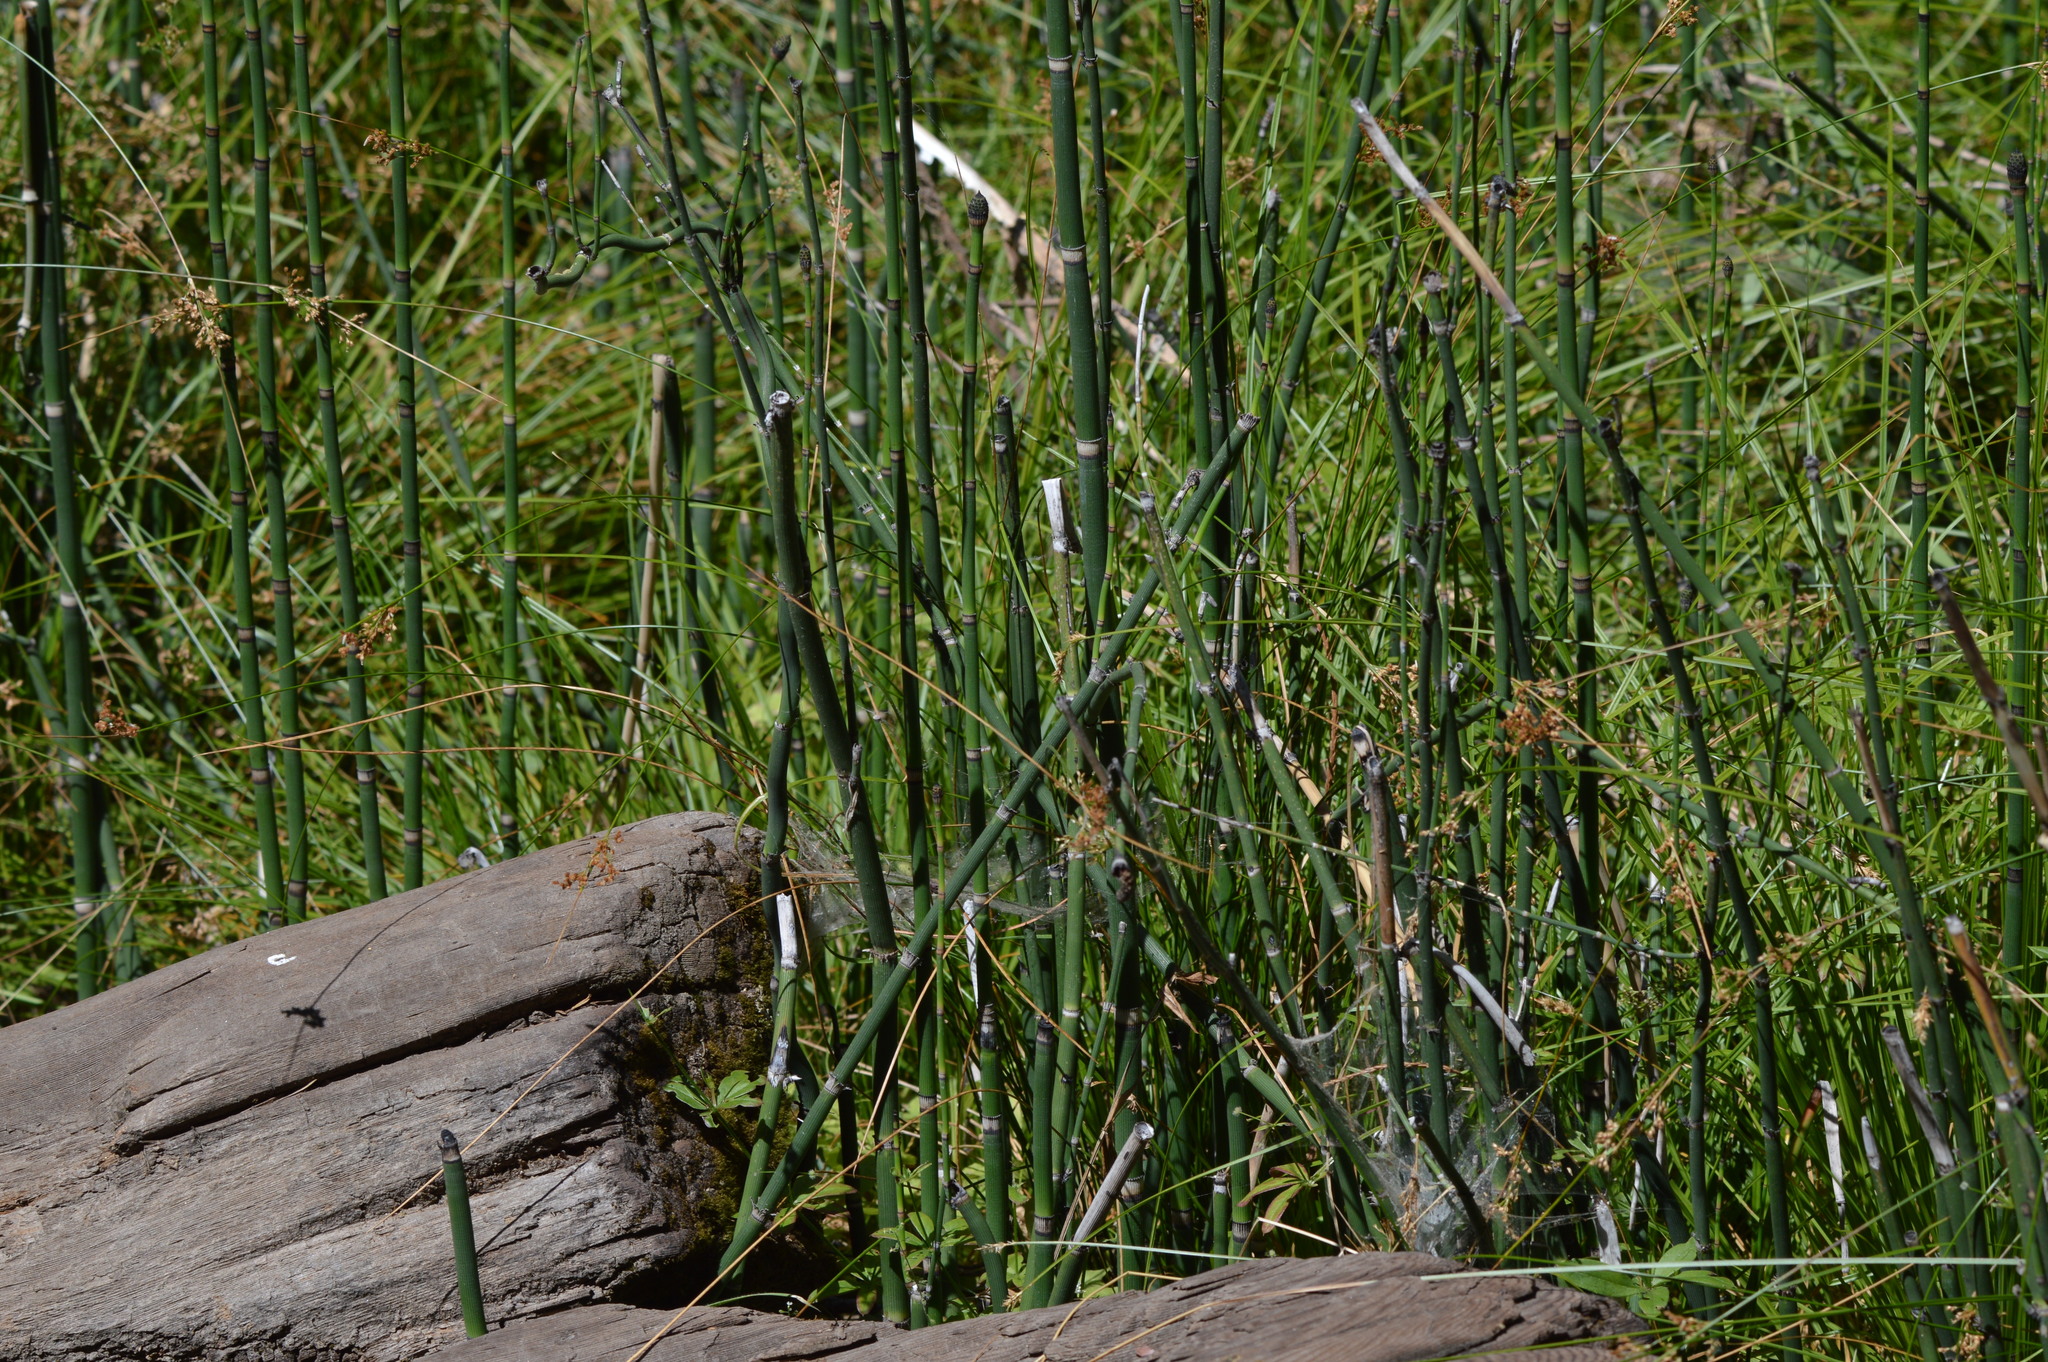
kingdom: Plantae
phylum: Tracheophyta
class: Polypodiopsida
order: Equisetales
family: Equisetaceae
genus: Equisetum
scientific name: Equisetum hyemale
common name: Rough horsetail
